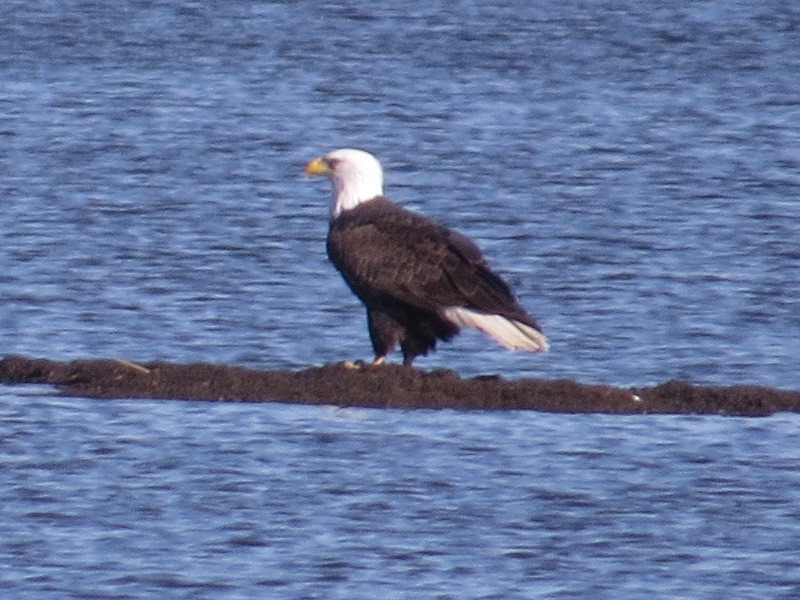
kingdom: Animalia
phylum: Chordata
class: Aves
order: Accipitriformes
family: Accipitridae
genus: Haliaeetus
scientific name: Haliaeetus leucocephalus
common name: Bald eagle
